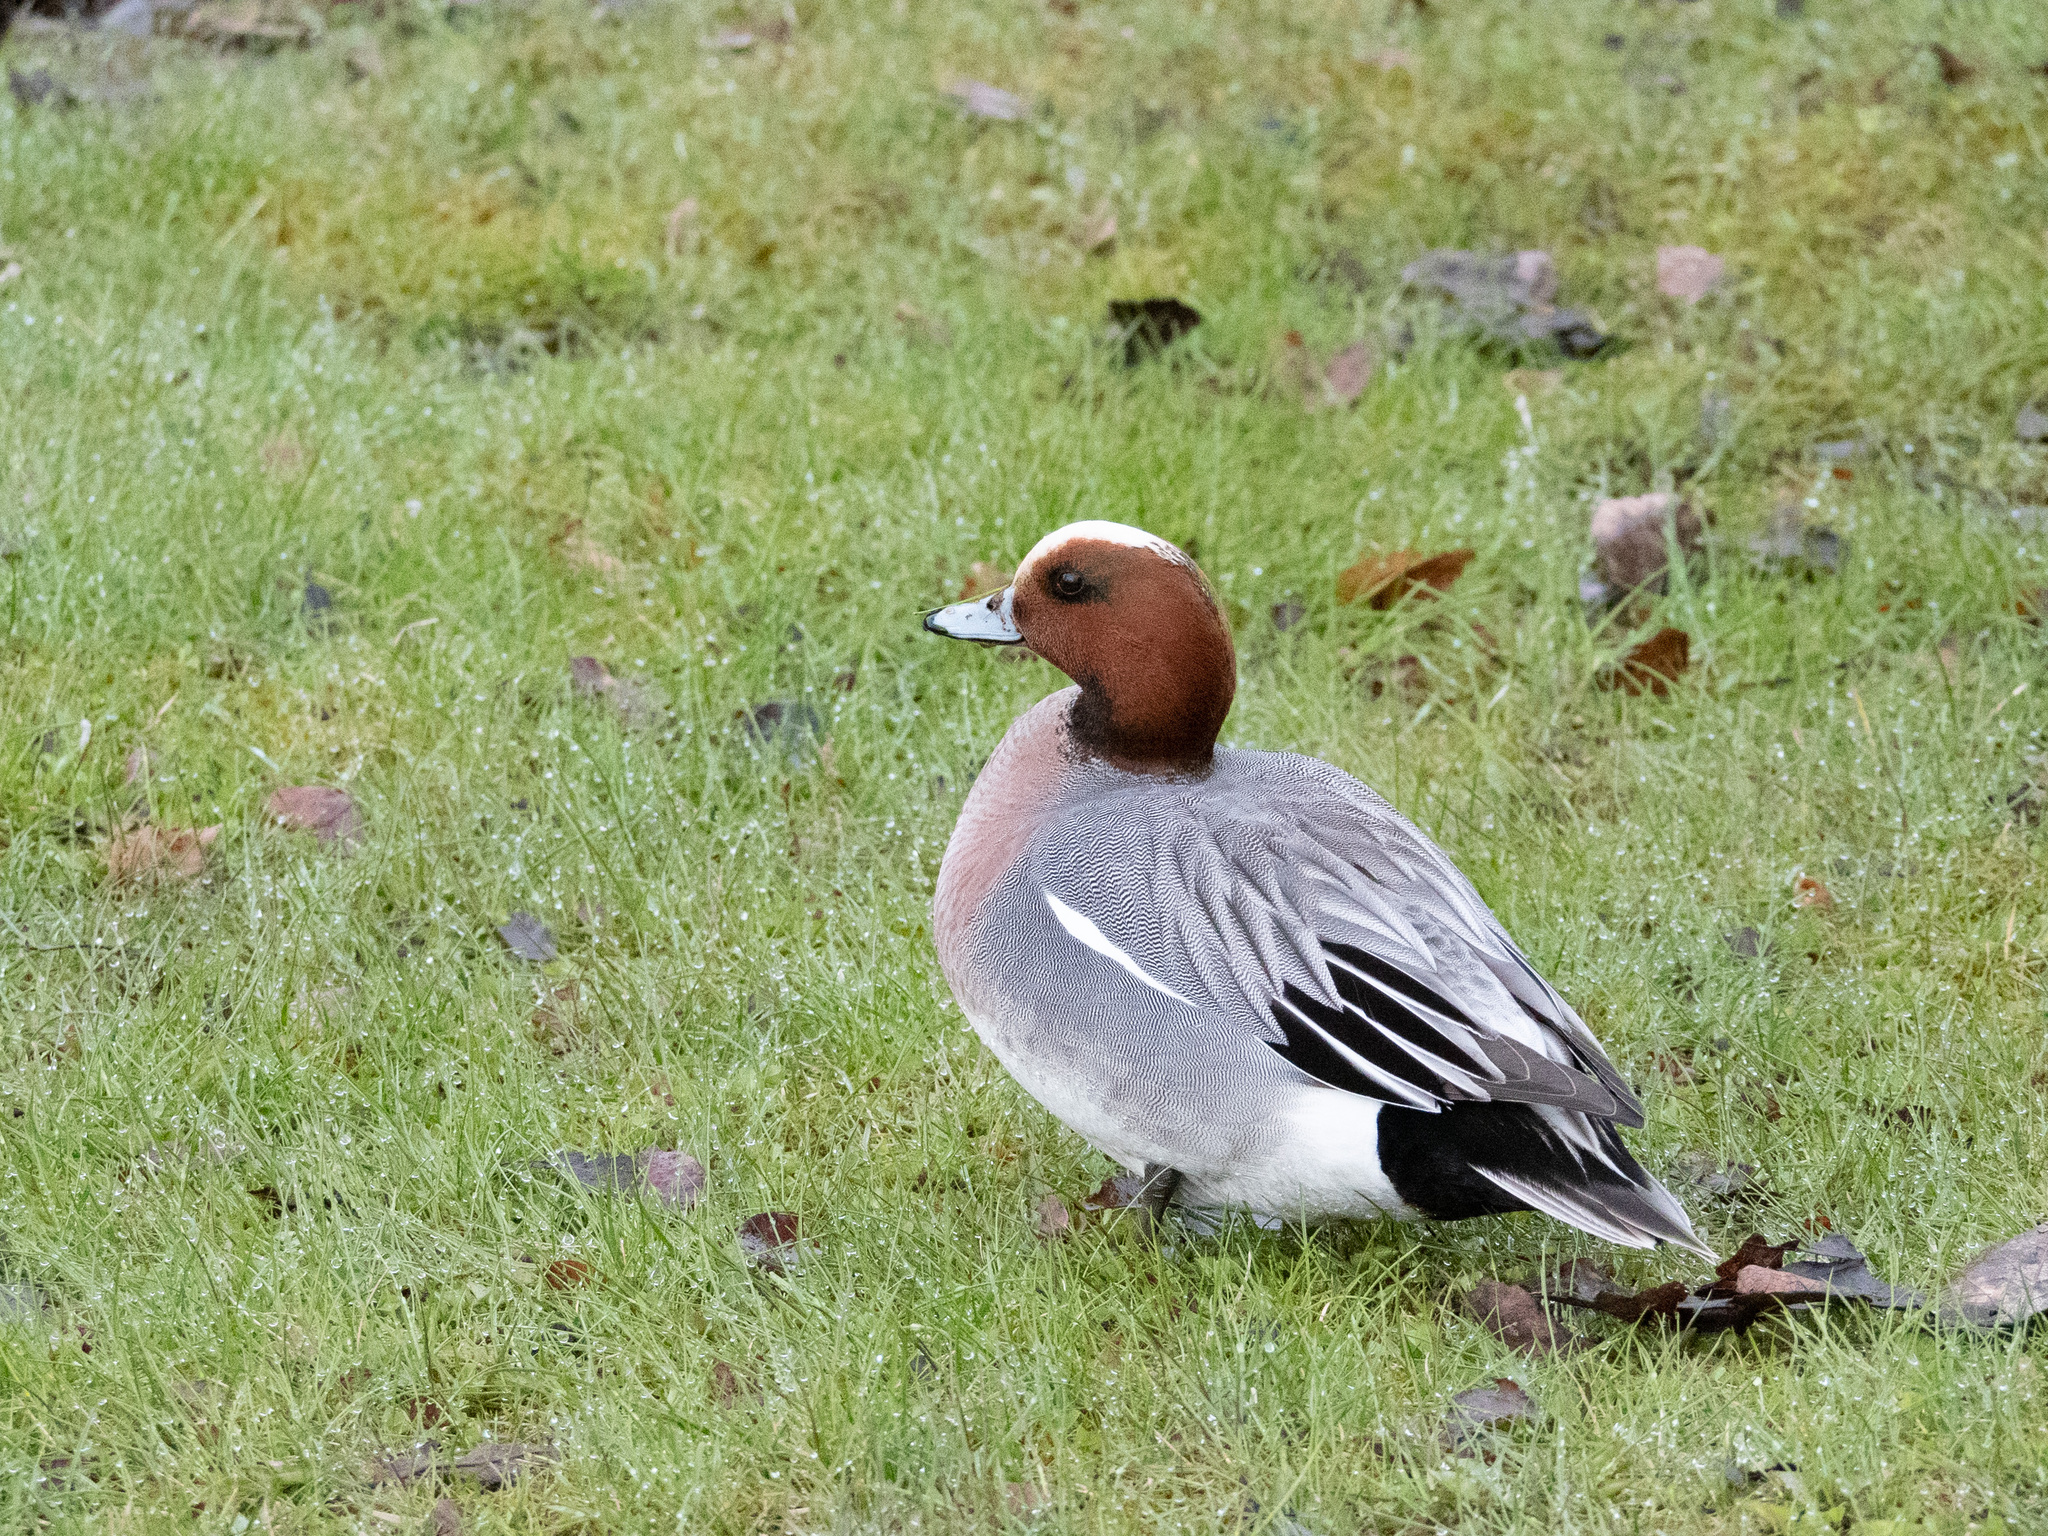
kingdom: Animalia
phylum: Chordata
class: Aves
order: Anseriformes
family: Anatidae
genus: Mareca
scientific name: Mareca penelope
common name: Eurasian wigeon
